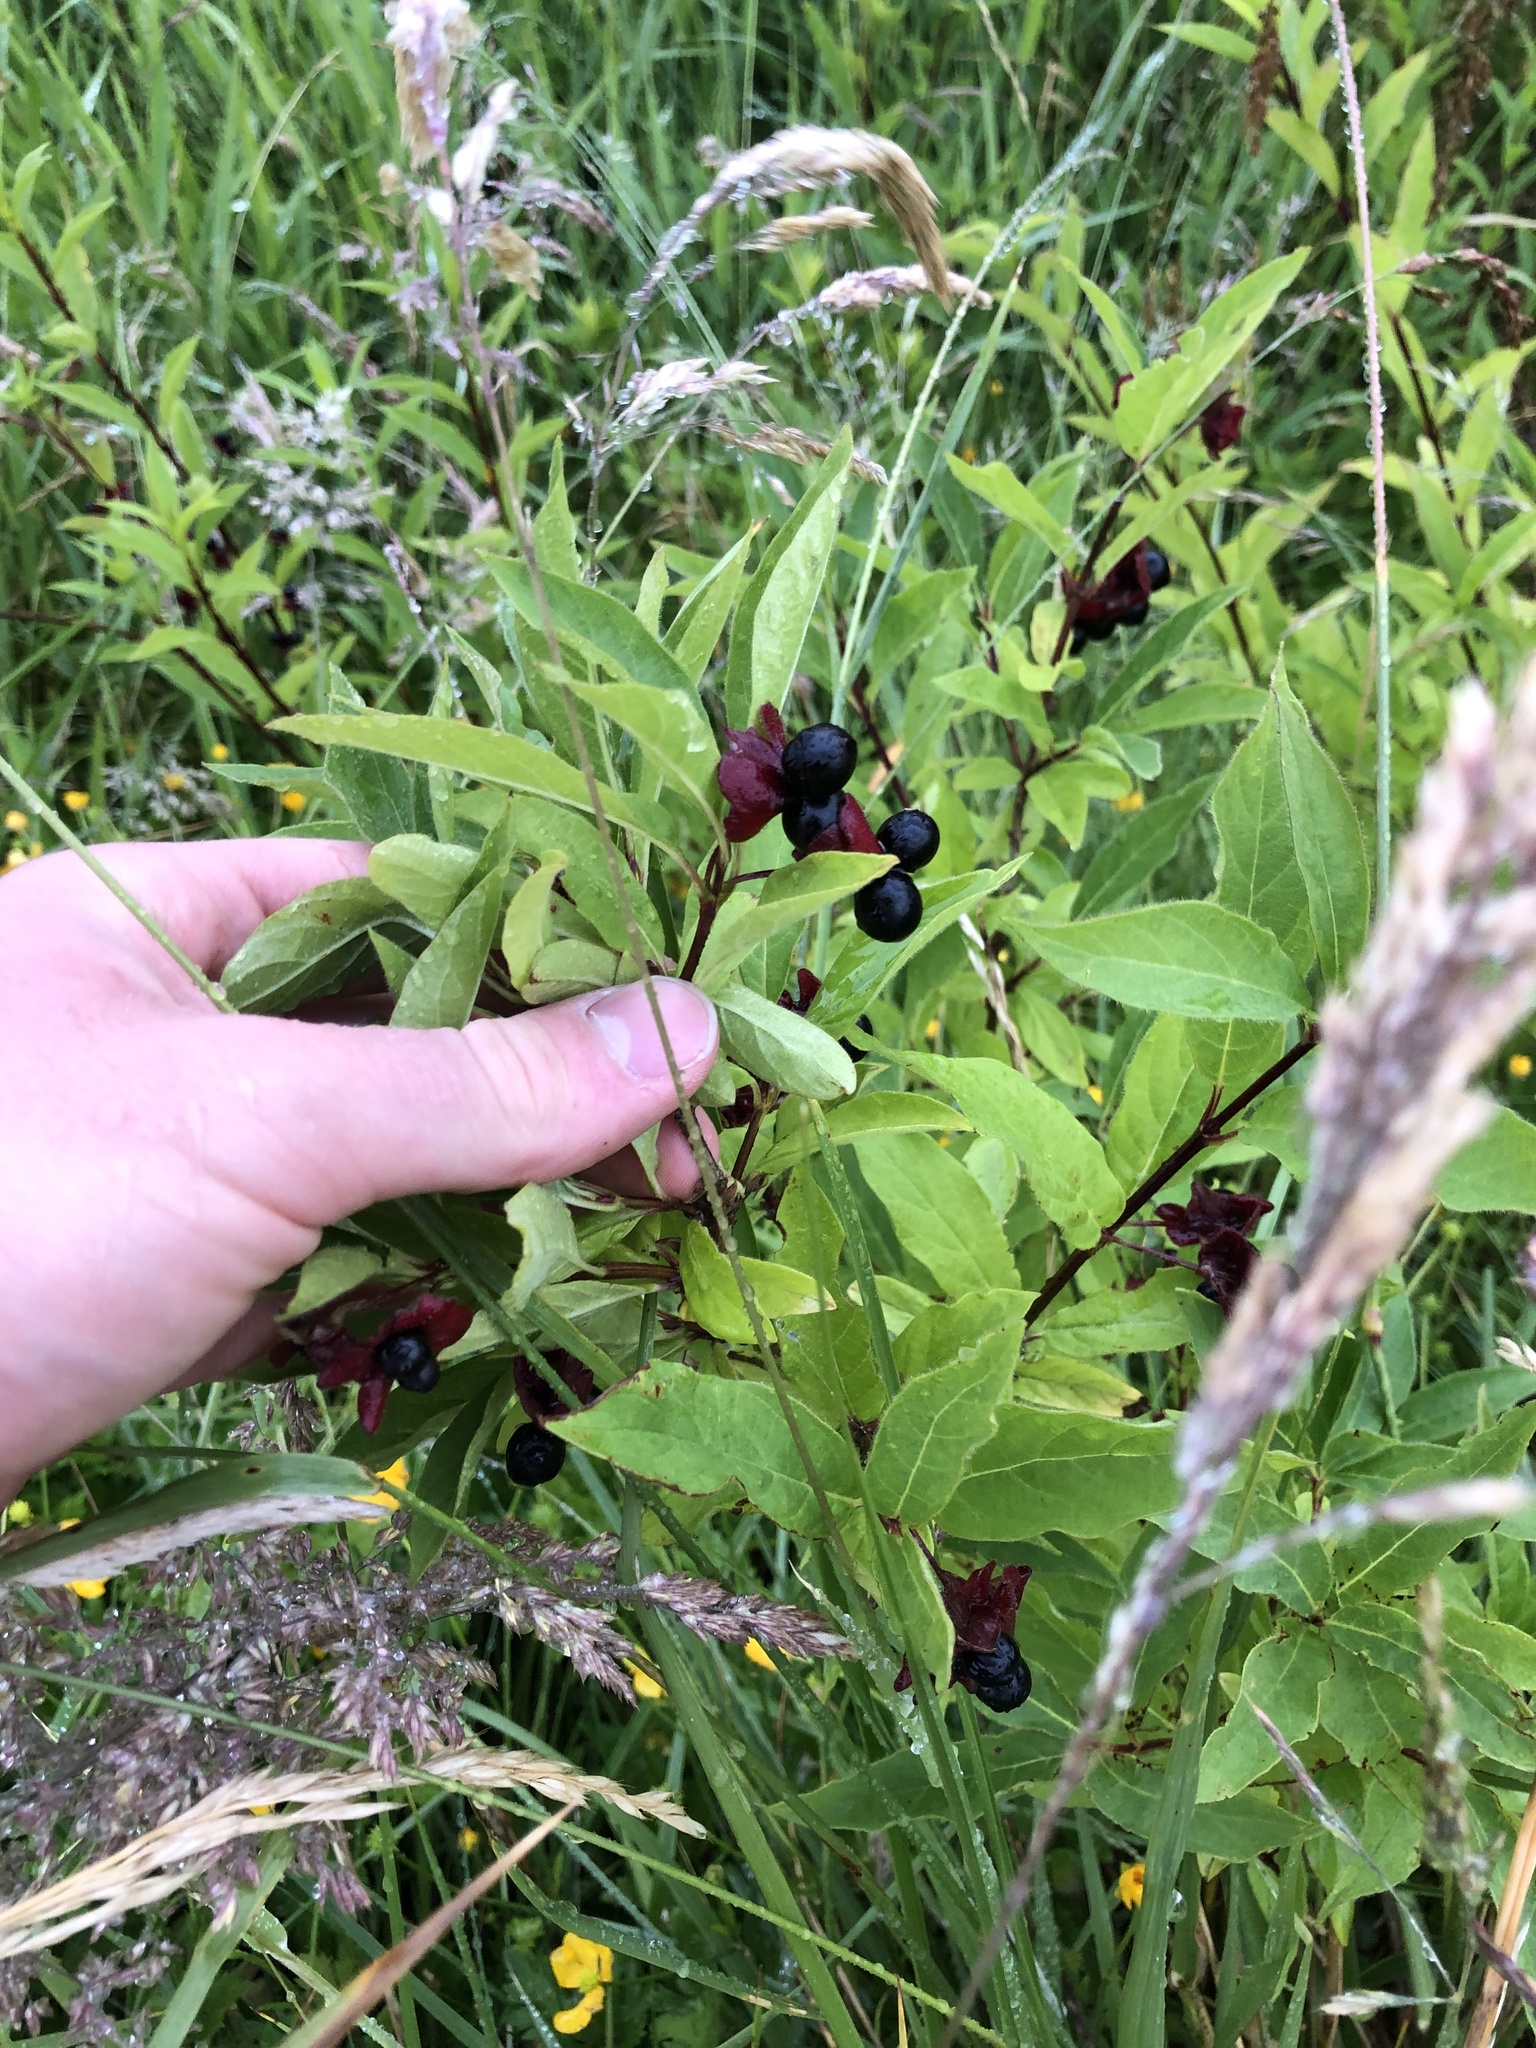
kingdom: Plantae
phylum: Tracheophyta
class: Magnoliopsida
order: Dipsacales
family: Caprifoliaceae
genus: Lonicera
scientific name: Lonicera involucrata
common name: Californian honeysuckle
